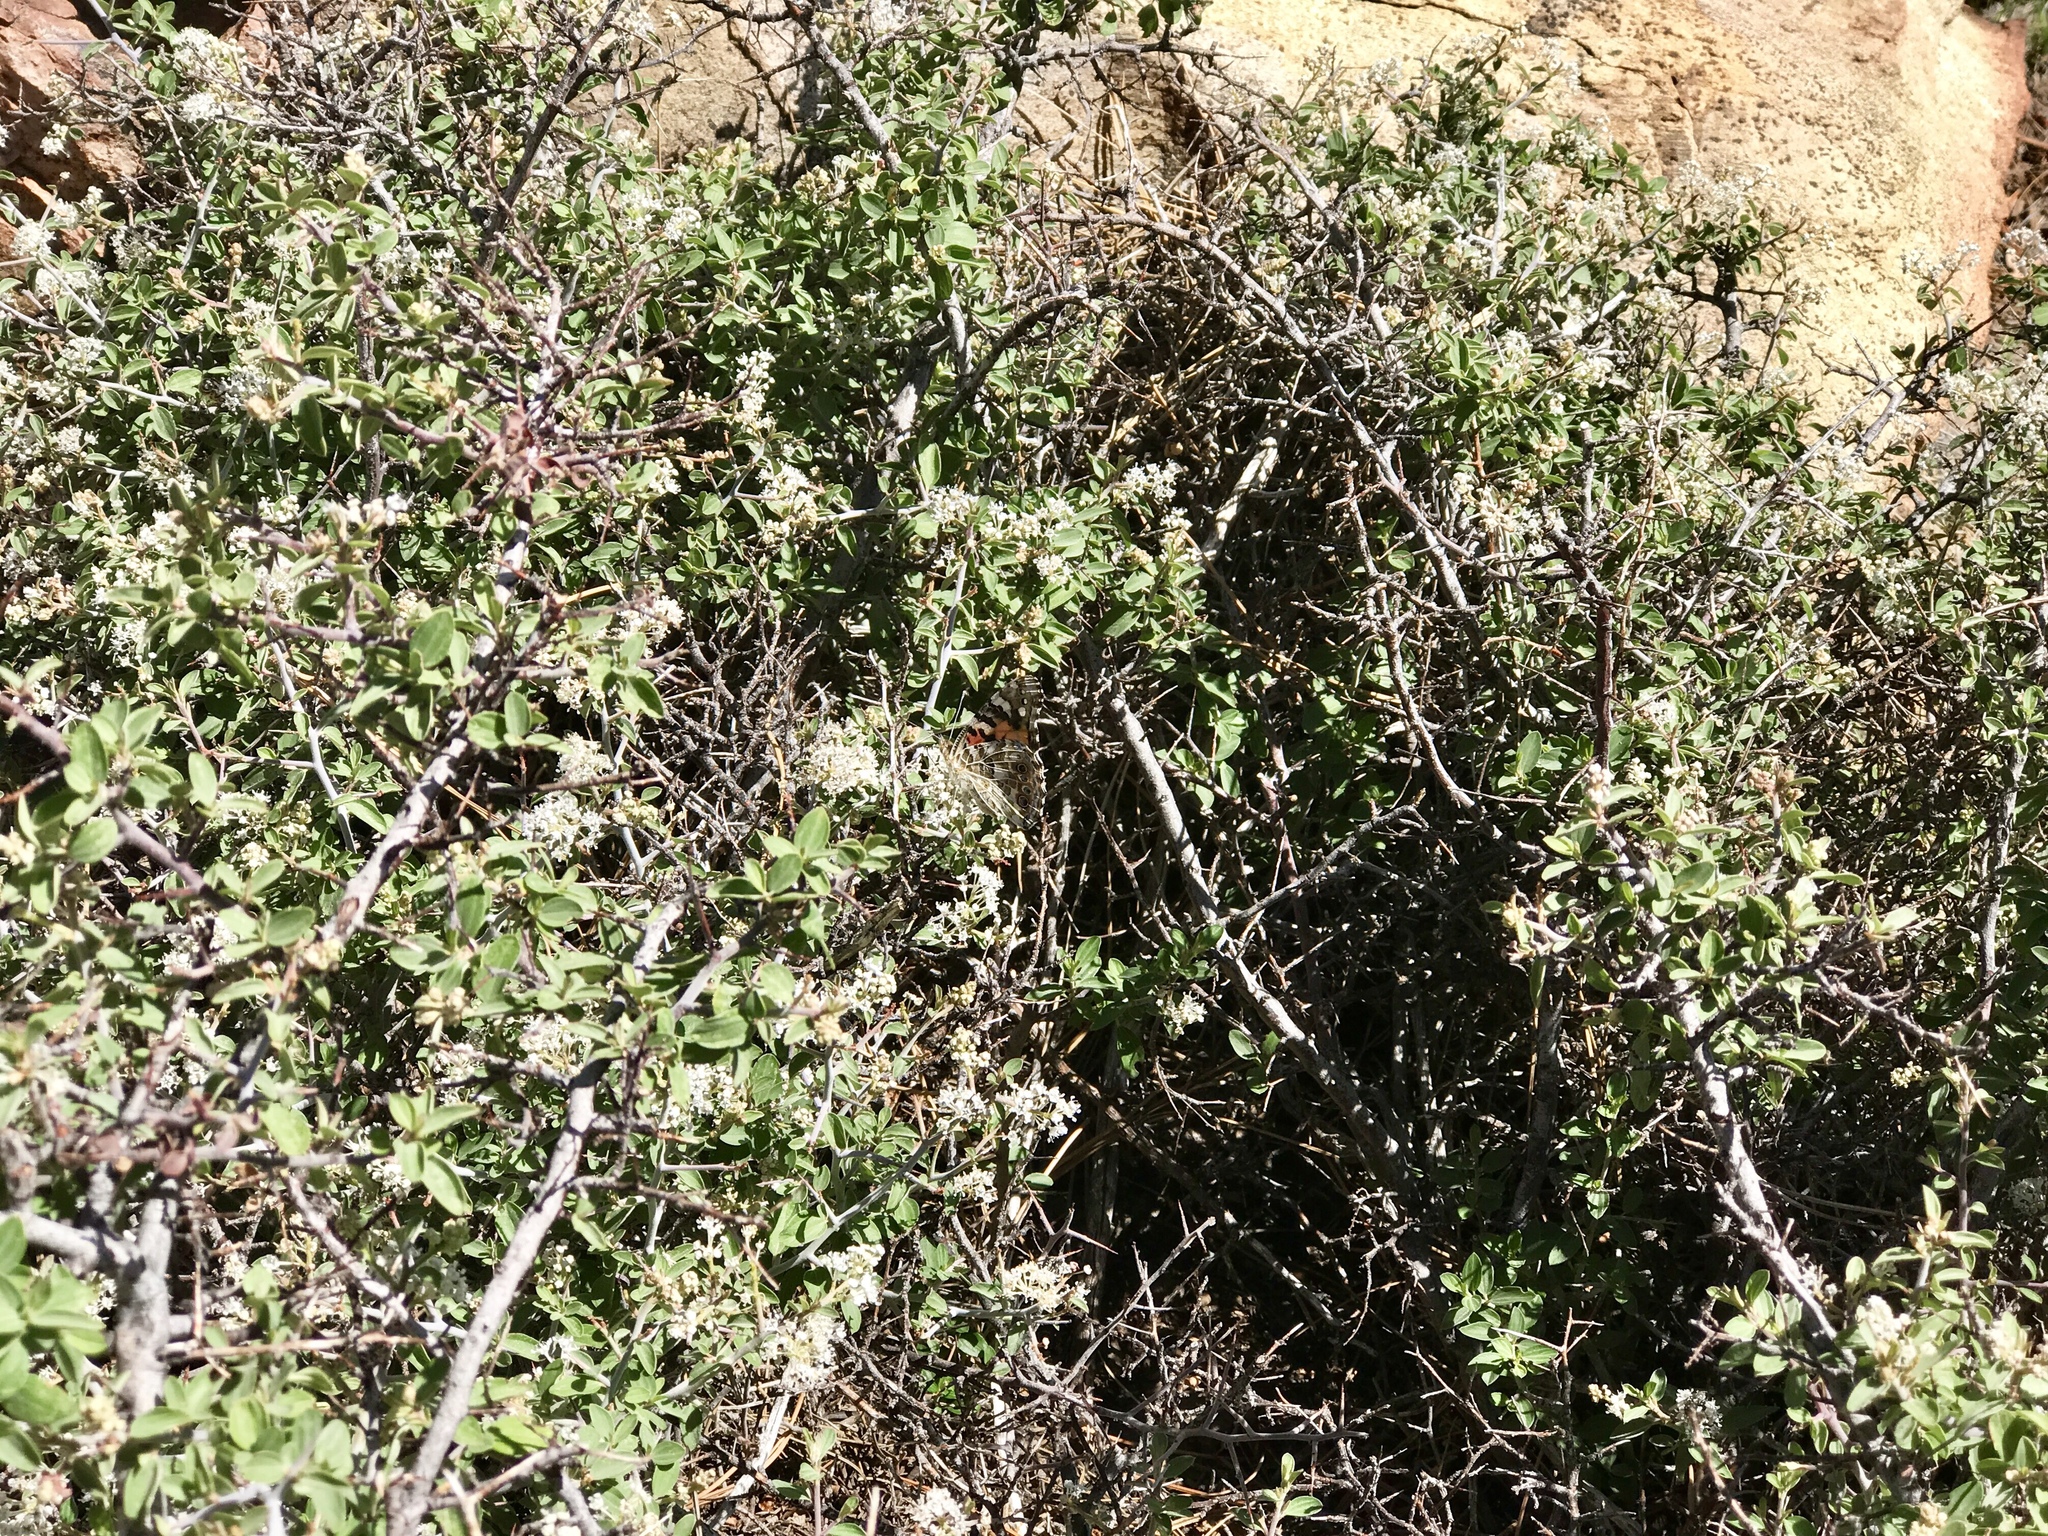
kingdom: Plantae
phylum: Tracheophyta
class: Magnoliopsida
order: Rosales
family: Rhamnaceae
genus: Ceanothus
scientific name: Ceanothus fendleri
